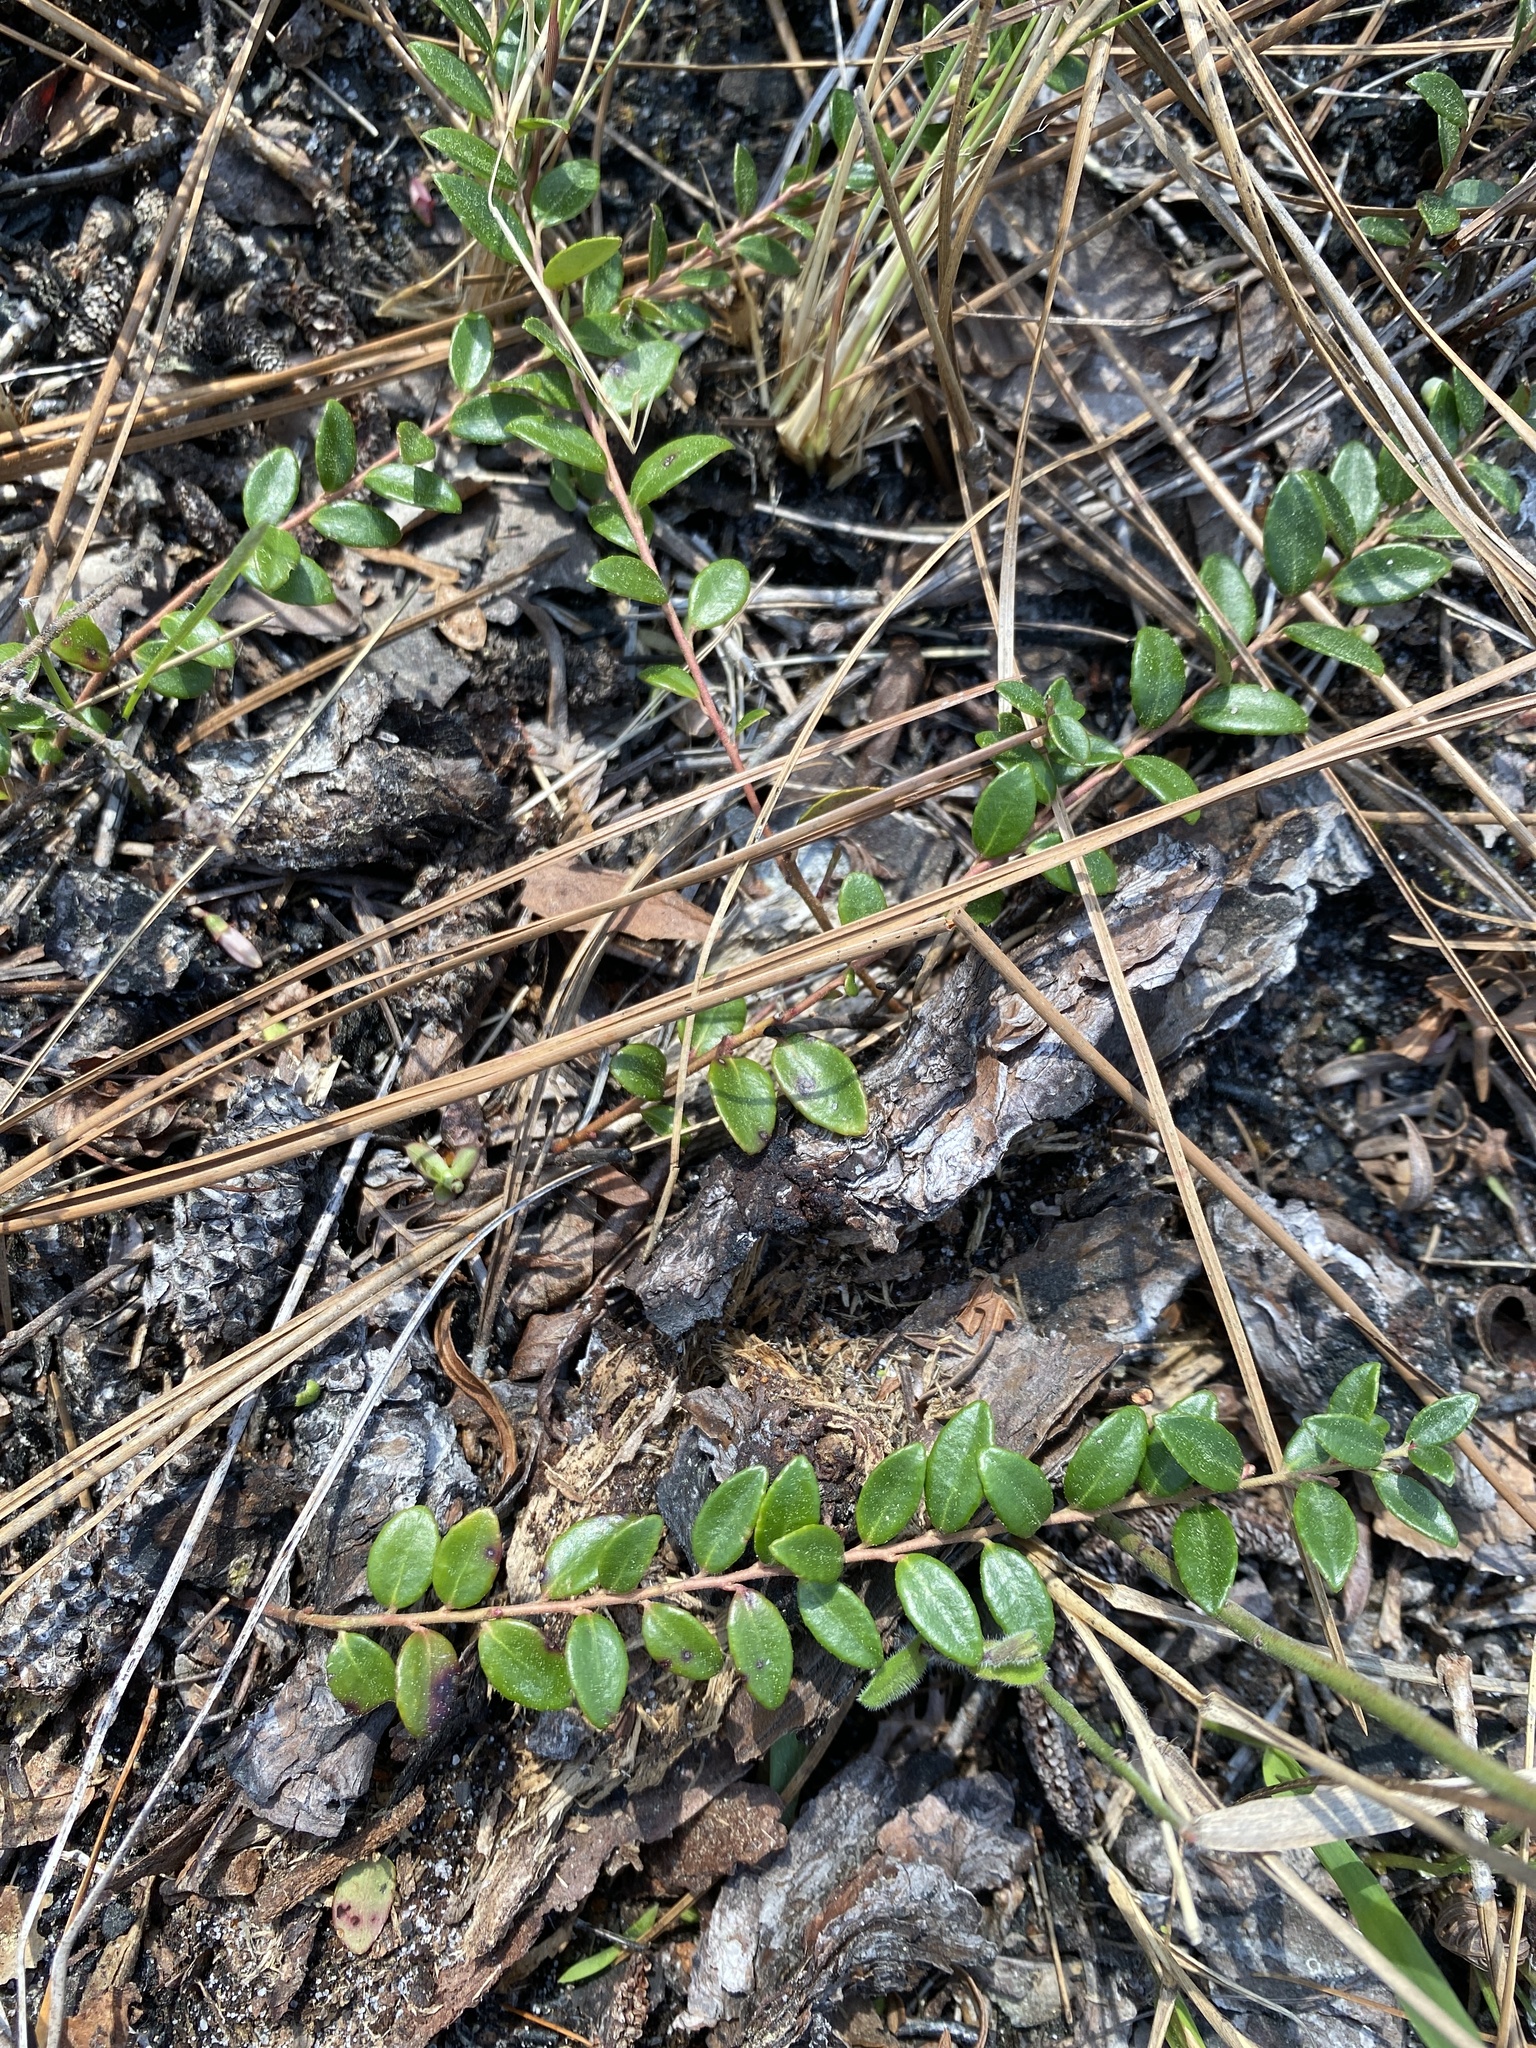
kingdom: Plantae
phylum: Tracheophyta
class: Magnoliopsida
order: Ericales
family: Ericaceae
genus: Vaccinium
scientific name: Vaccinium crassifolium
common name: Creeping blueberry
